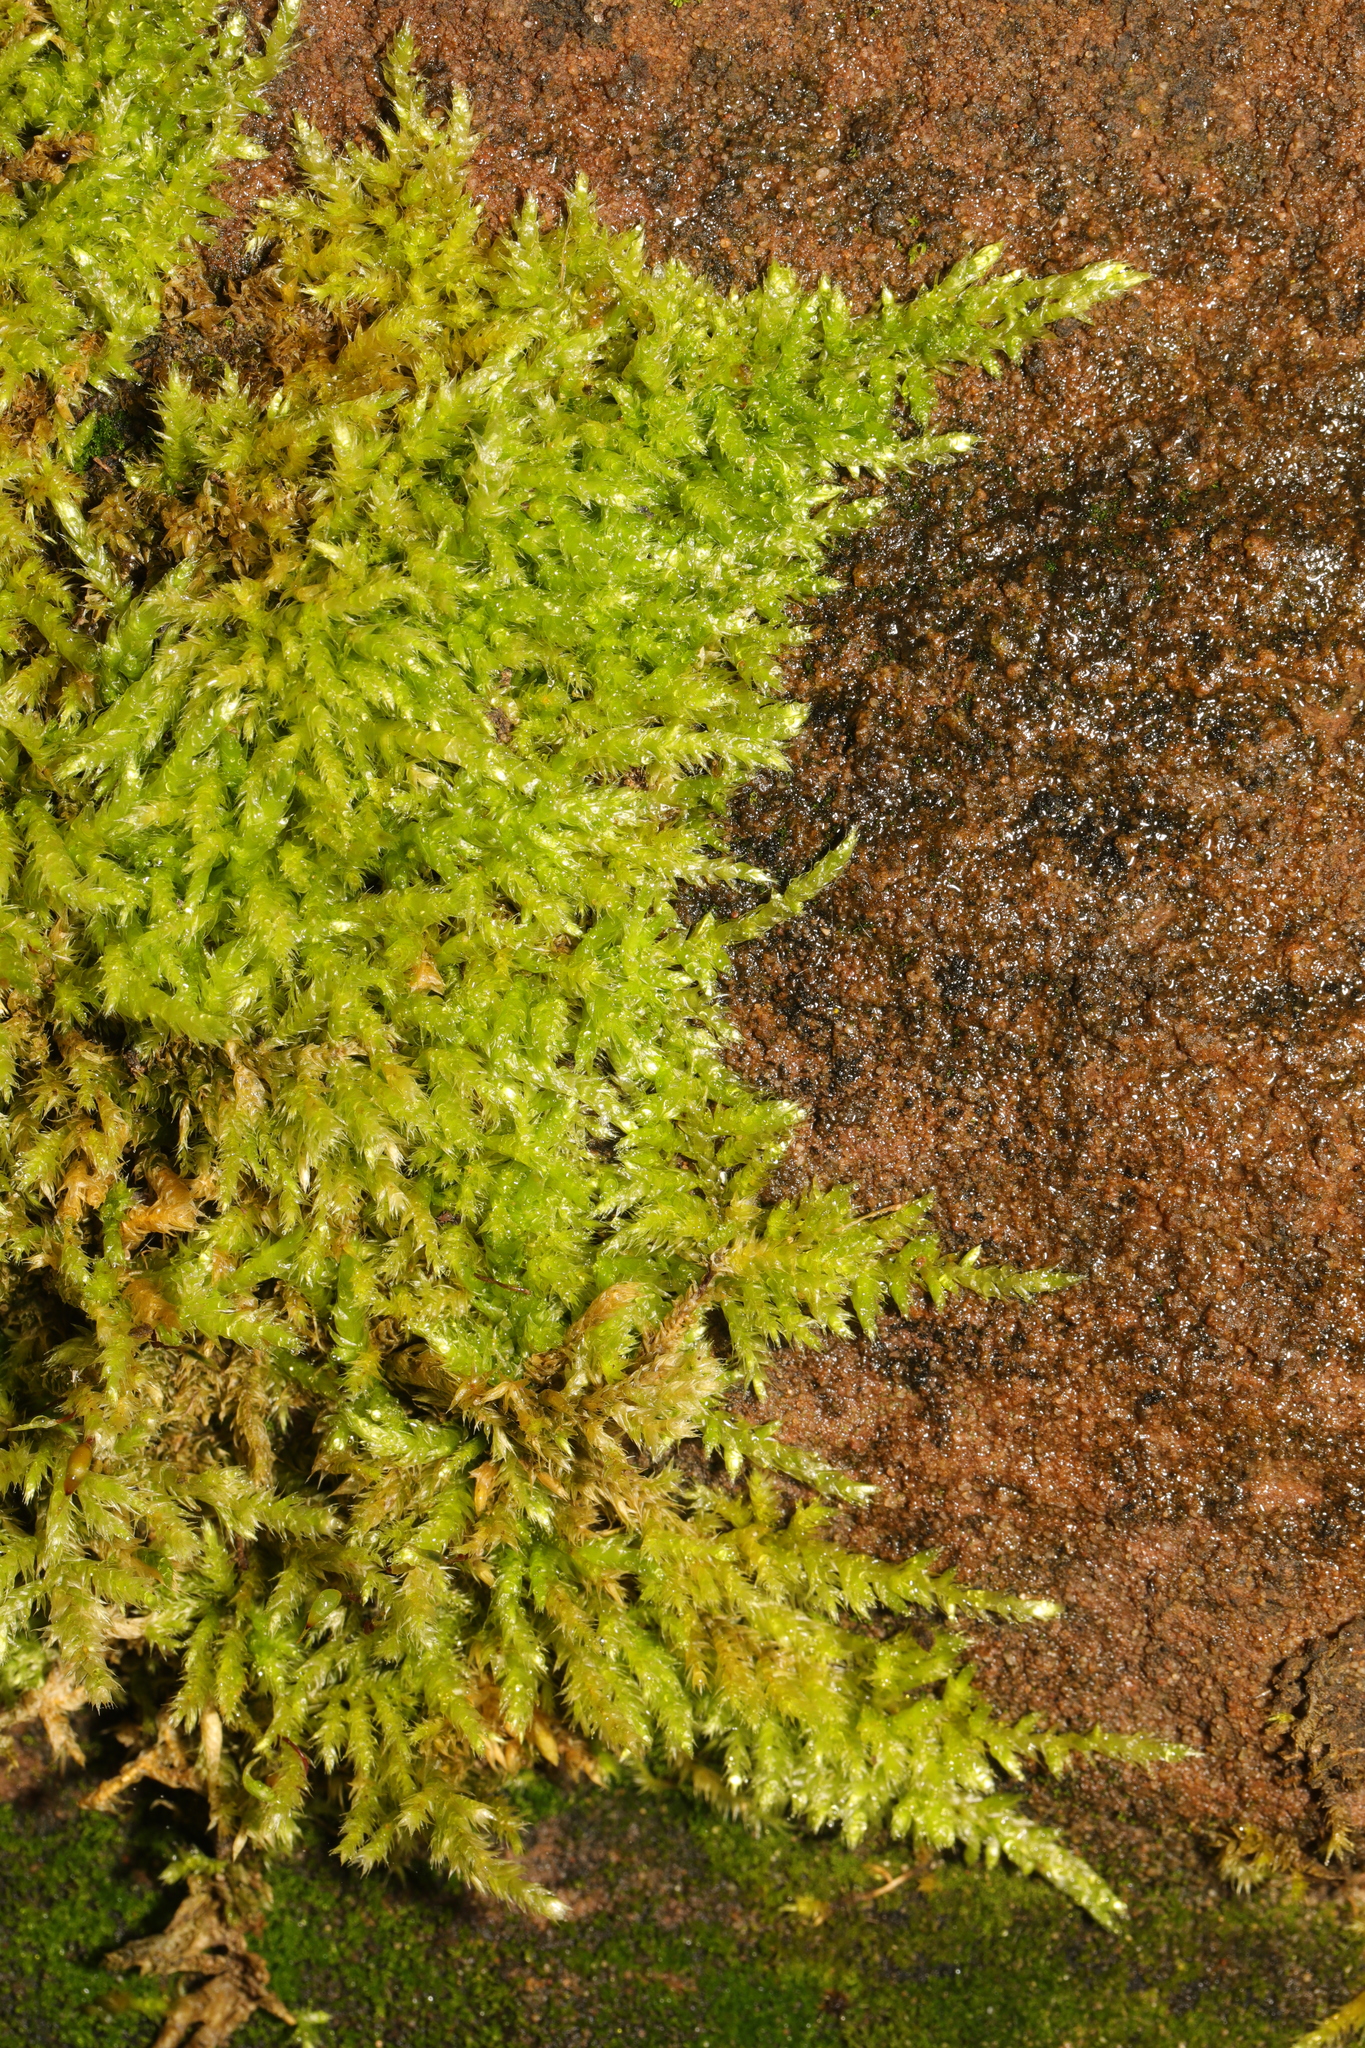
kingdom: Plantae
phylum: Bryophyta
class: Bryopsida
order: Hypnales
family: Brachytheciaceae
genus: Brachythecium
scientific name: Brachythecium rutabulum
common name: Rough-stalked feather-moss
